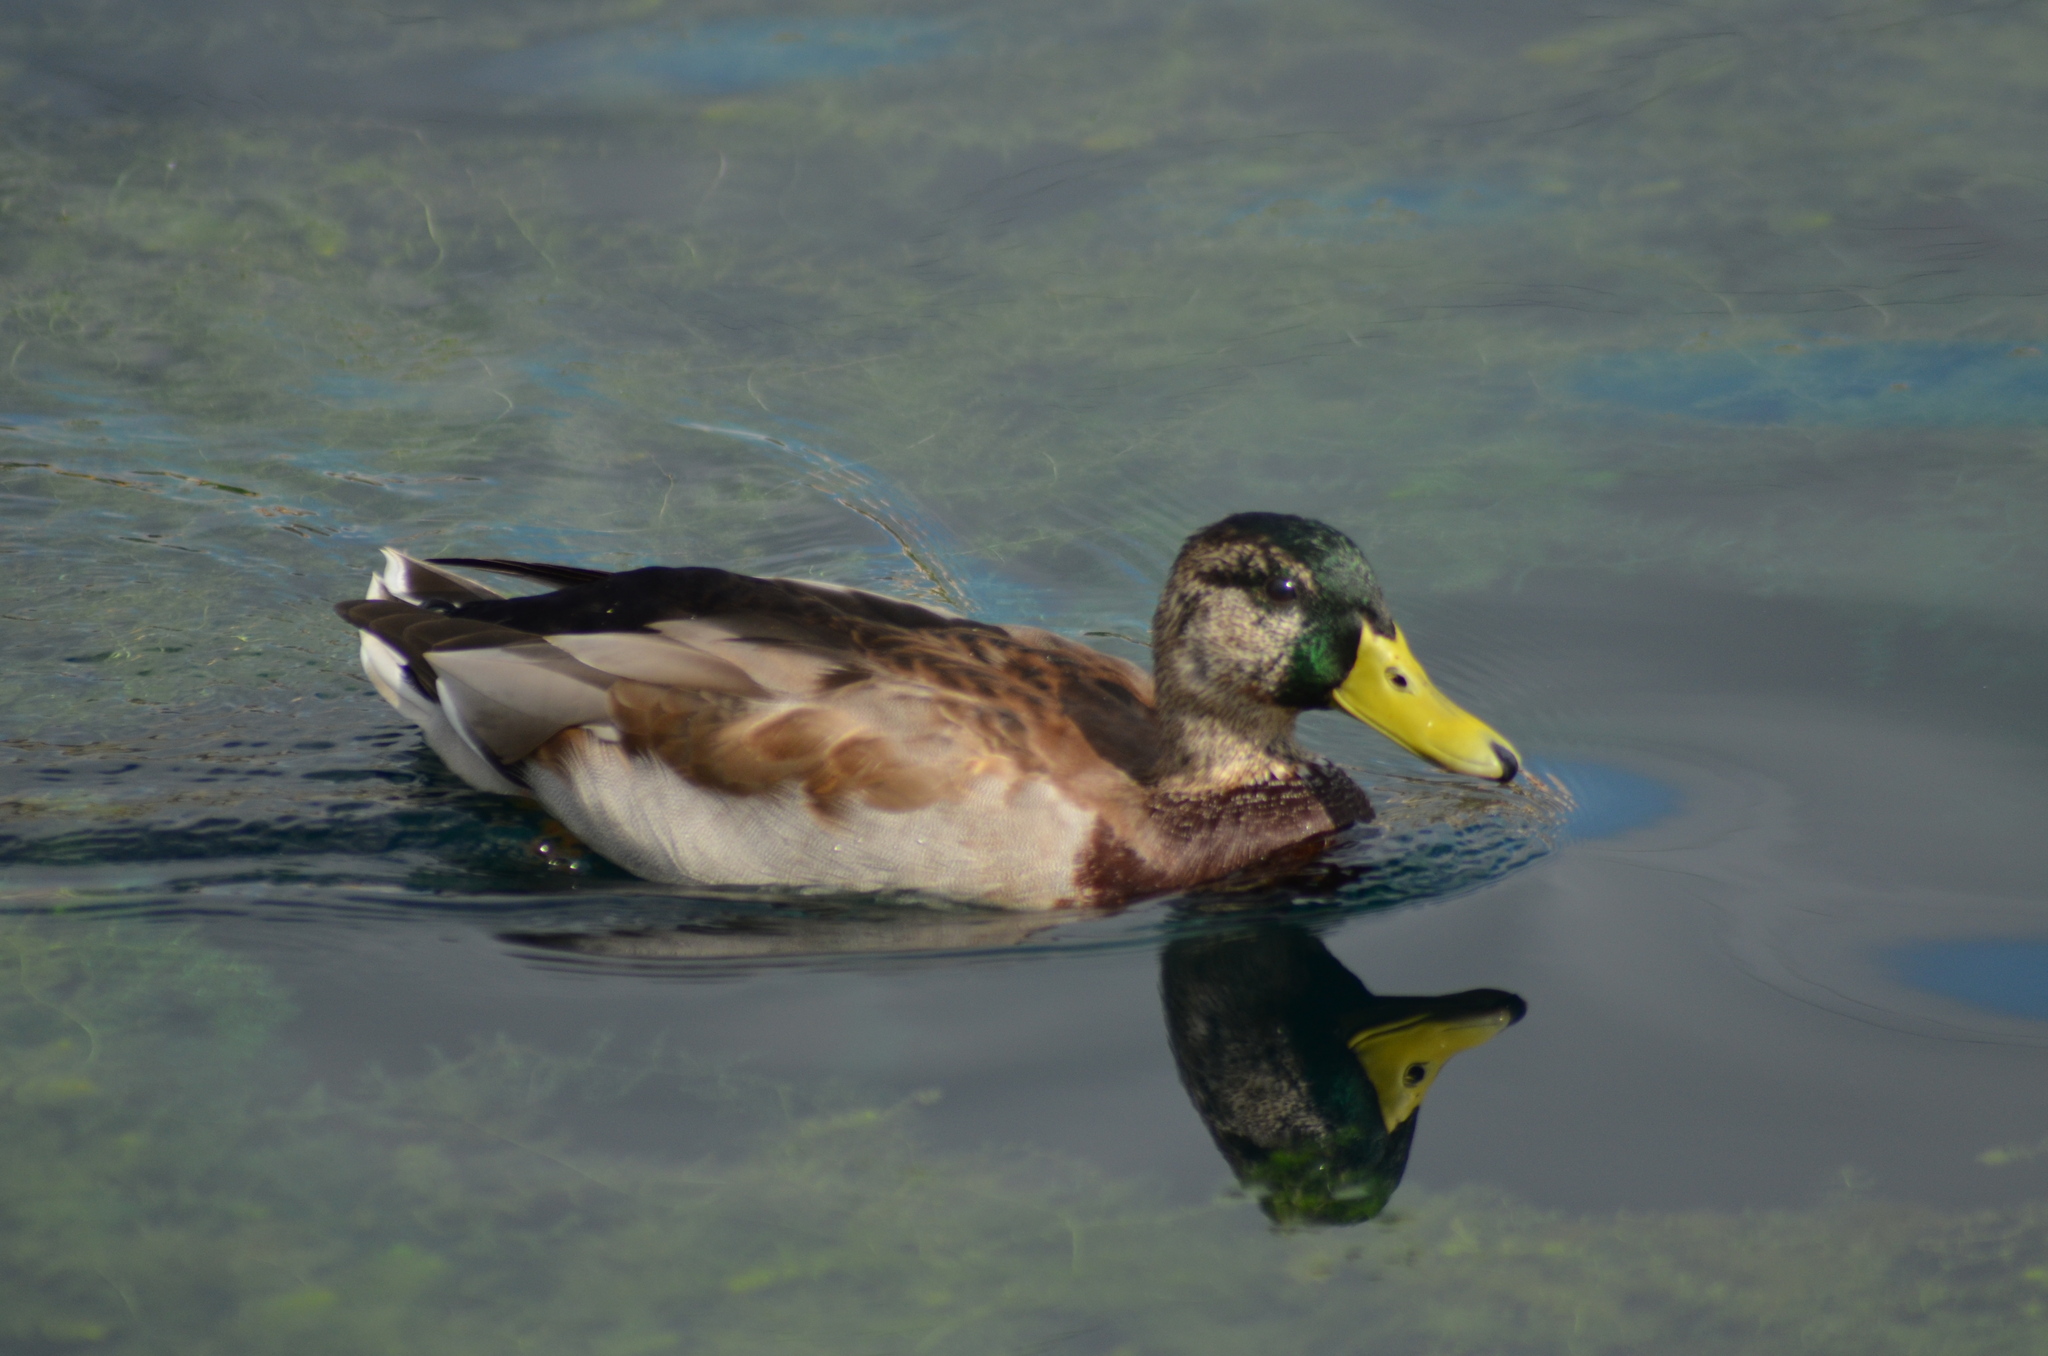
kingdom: Animalia
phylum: Chordata
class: Aves
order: Anseriformes
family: Anatidae
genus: Anas
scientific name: Anas platyrhynchos
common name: Mallard
